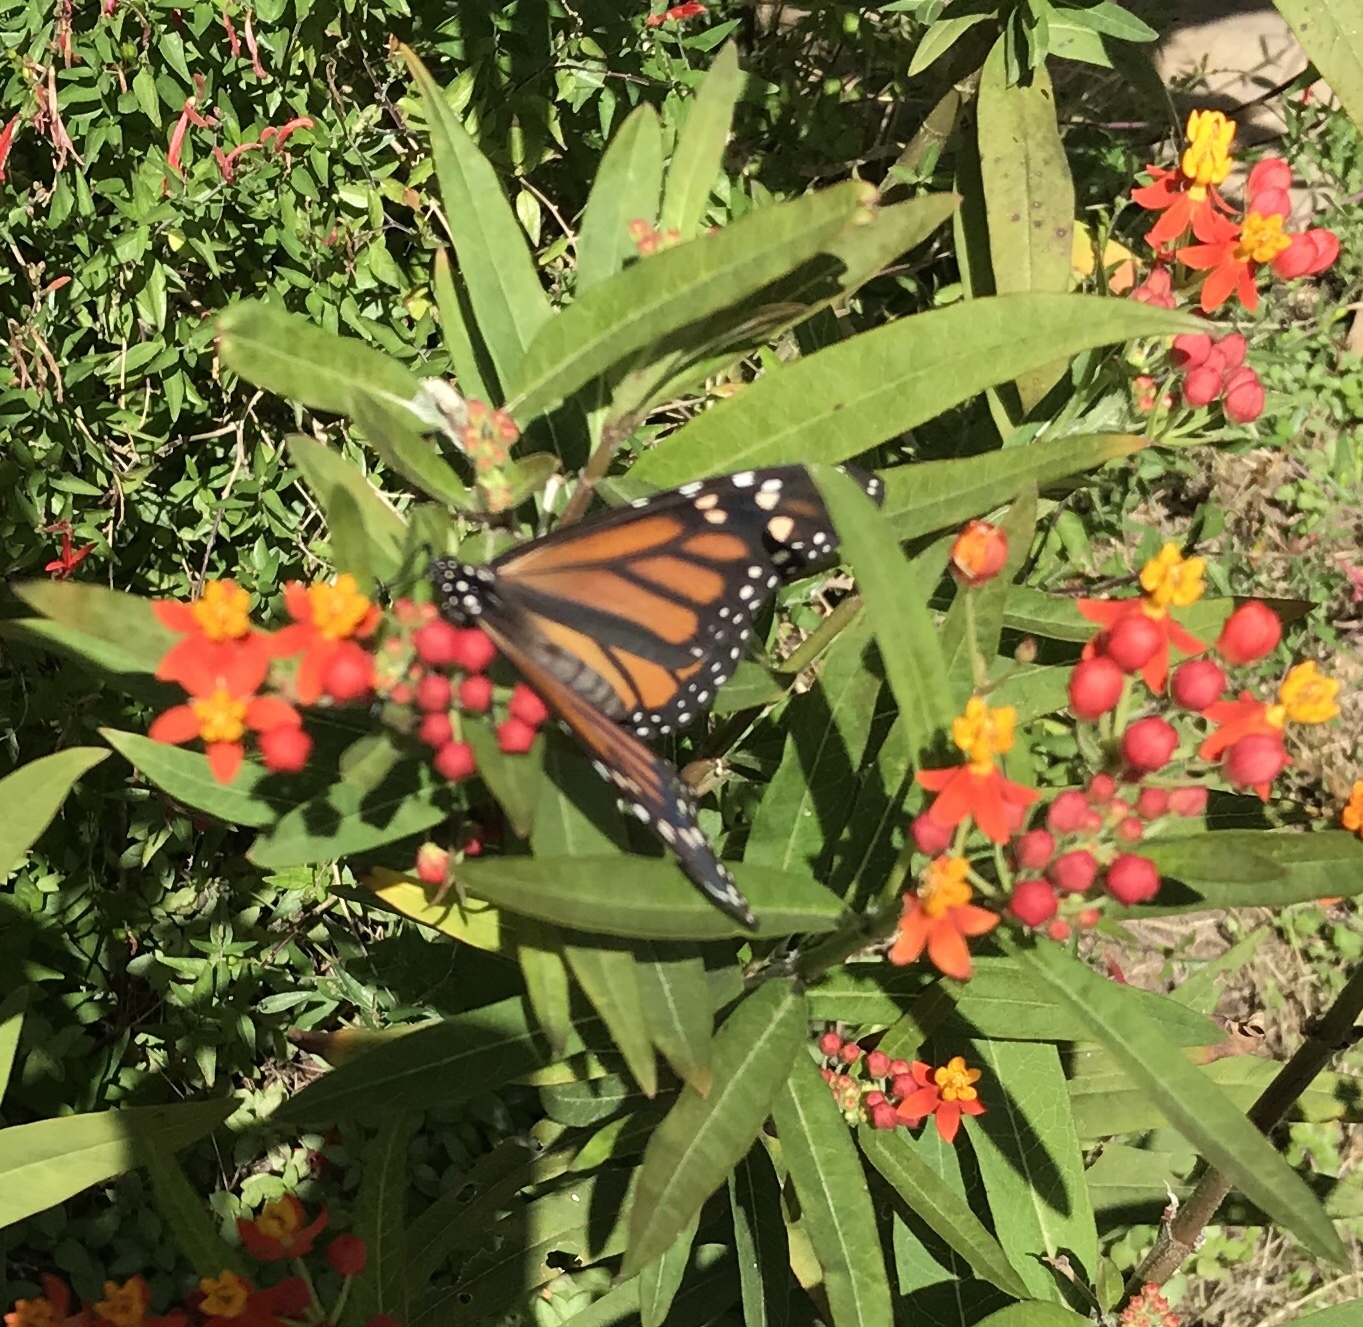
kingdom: Animalia
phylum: Arthropoda
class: Insecta
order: Lepidoptera
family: Nymphalidae
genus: Danaus
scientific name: Danaus plexippus
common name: Monarch
